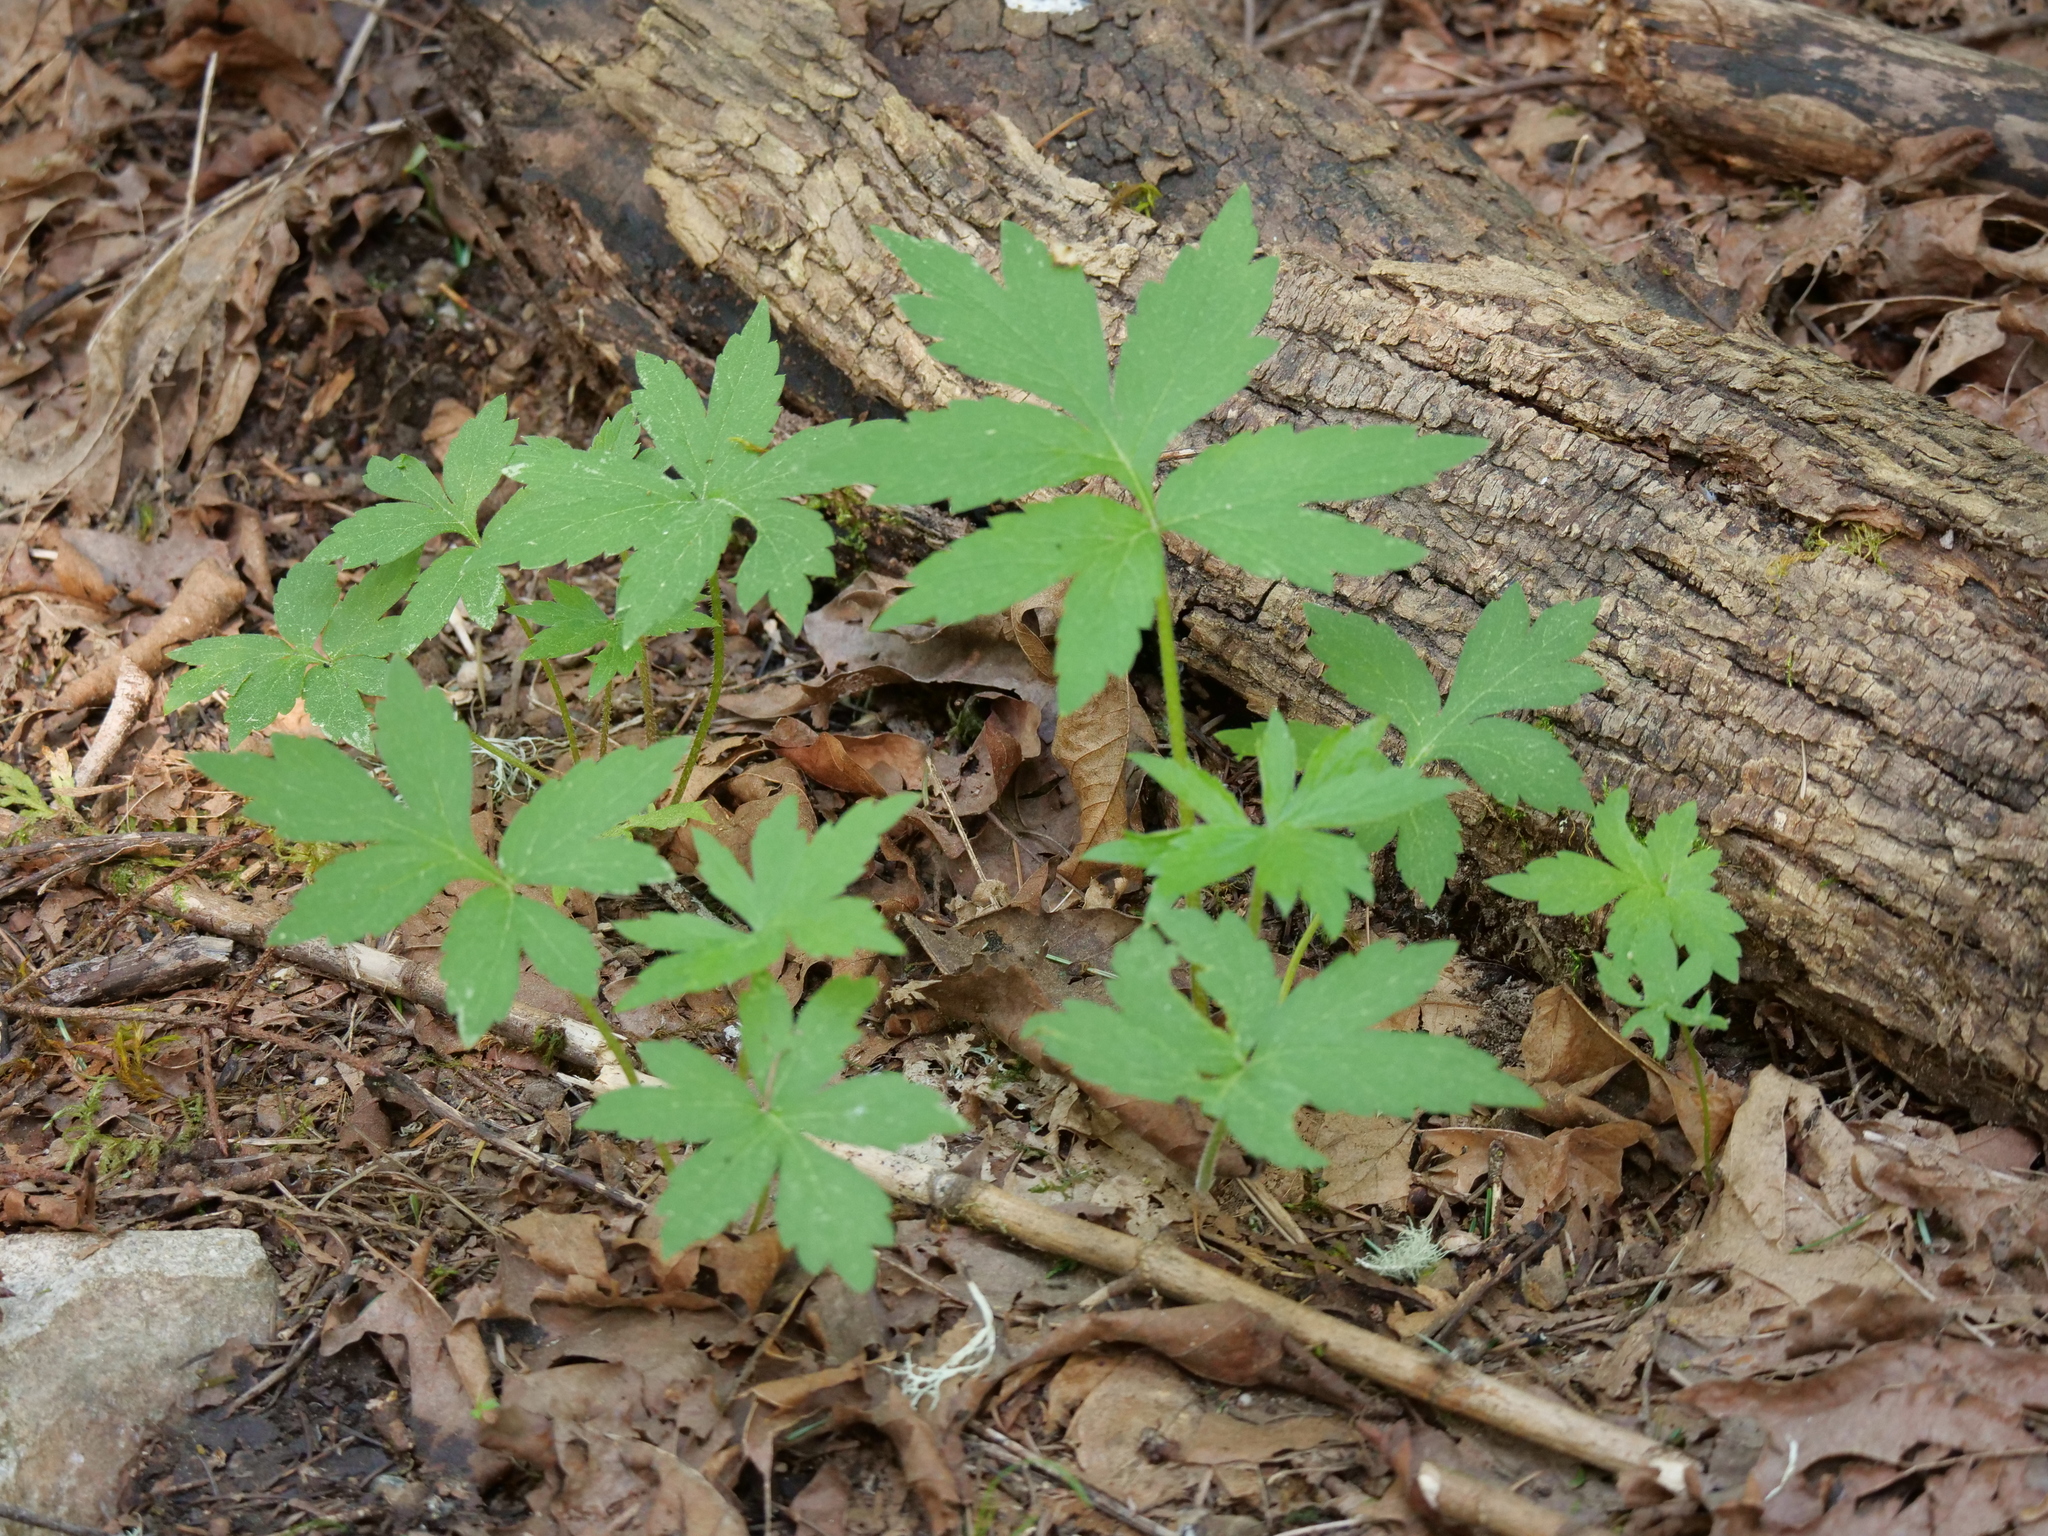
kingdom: Plantae
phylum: Tracheophyta
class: Magnoliopsida
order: Boraginales
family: Hydrophyllaceae
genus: Hydrophyllum
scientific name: Hydrophyllum tenuipes
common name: Pacific waterleaf
